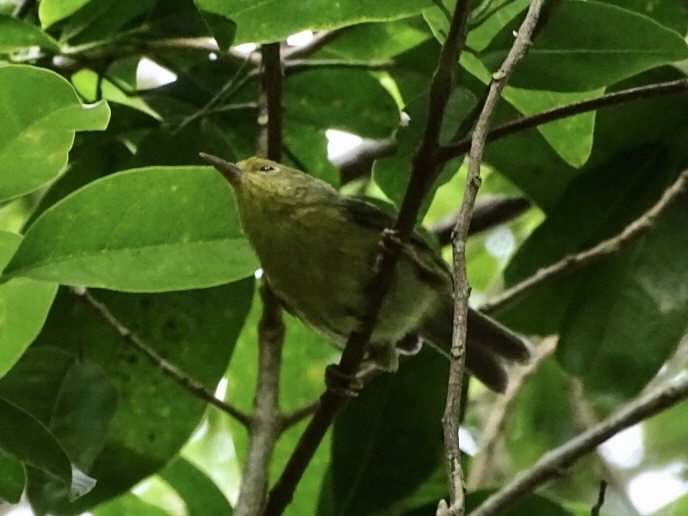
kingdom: Animalia
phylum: Chordata
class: Aves
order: Passeriformes
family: Timaliidae
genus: Stachyridopsis
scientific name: Stachyridopsis ruficeps
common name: Rufous-capped babbler
